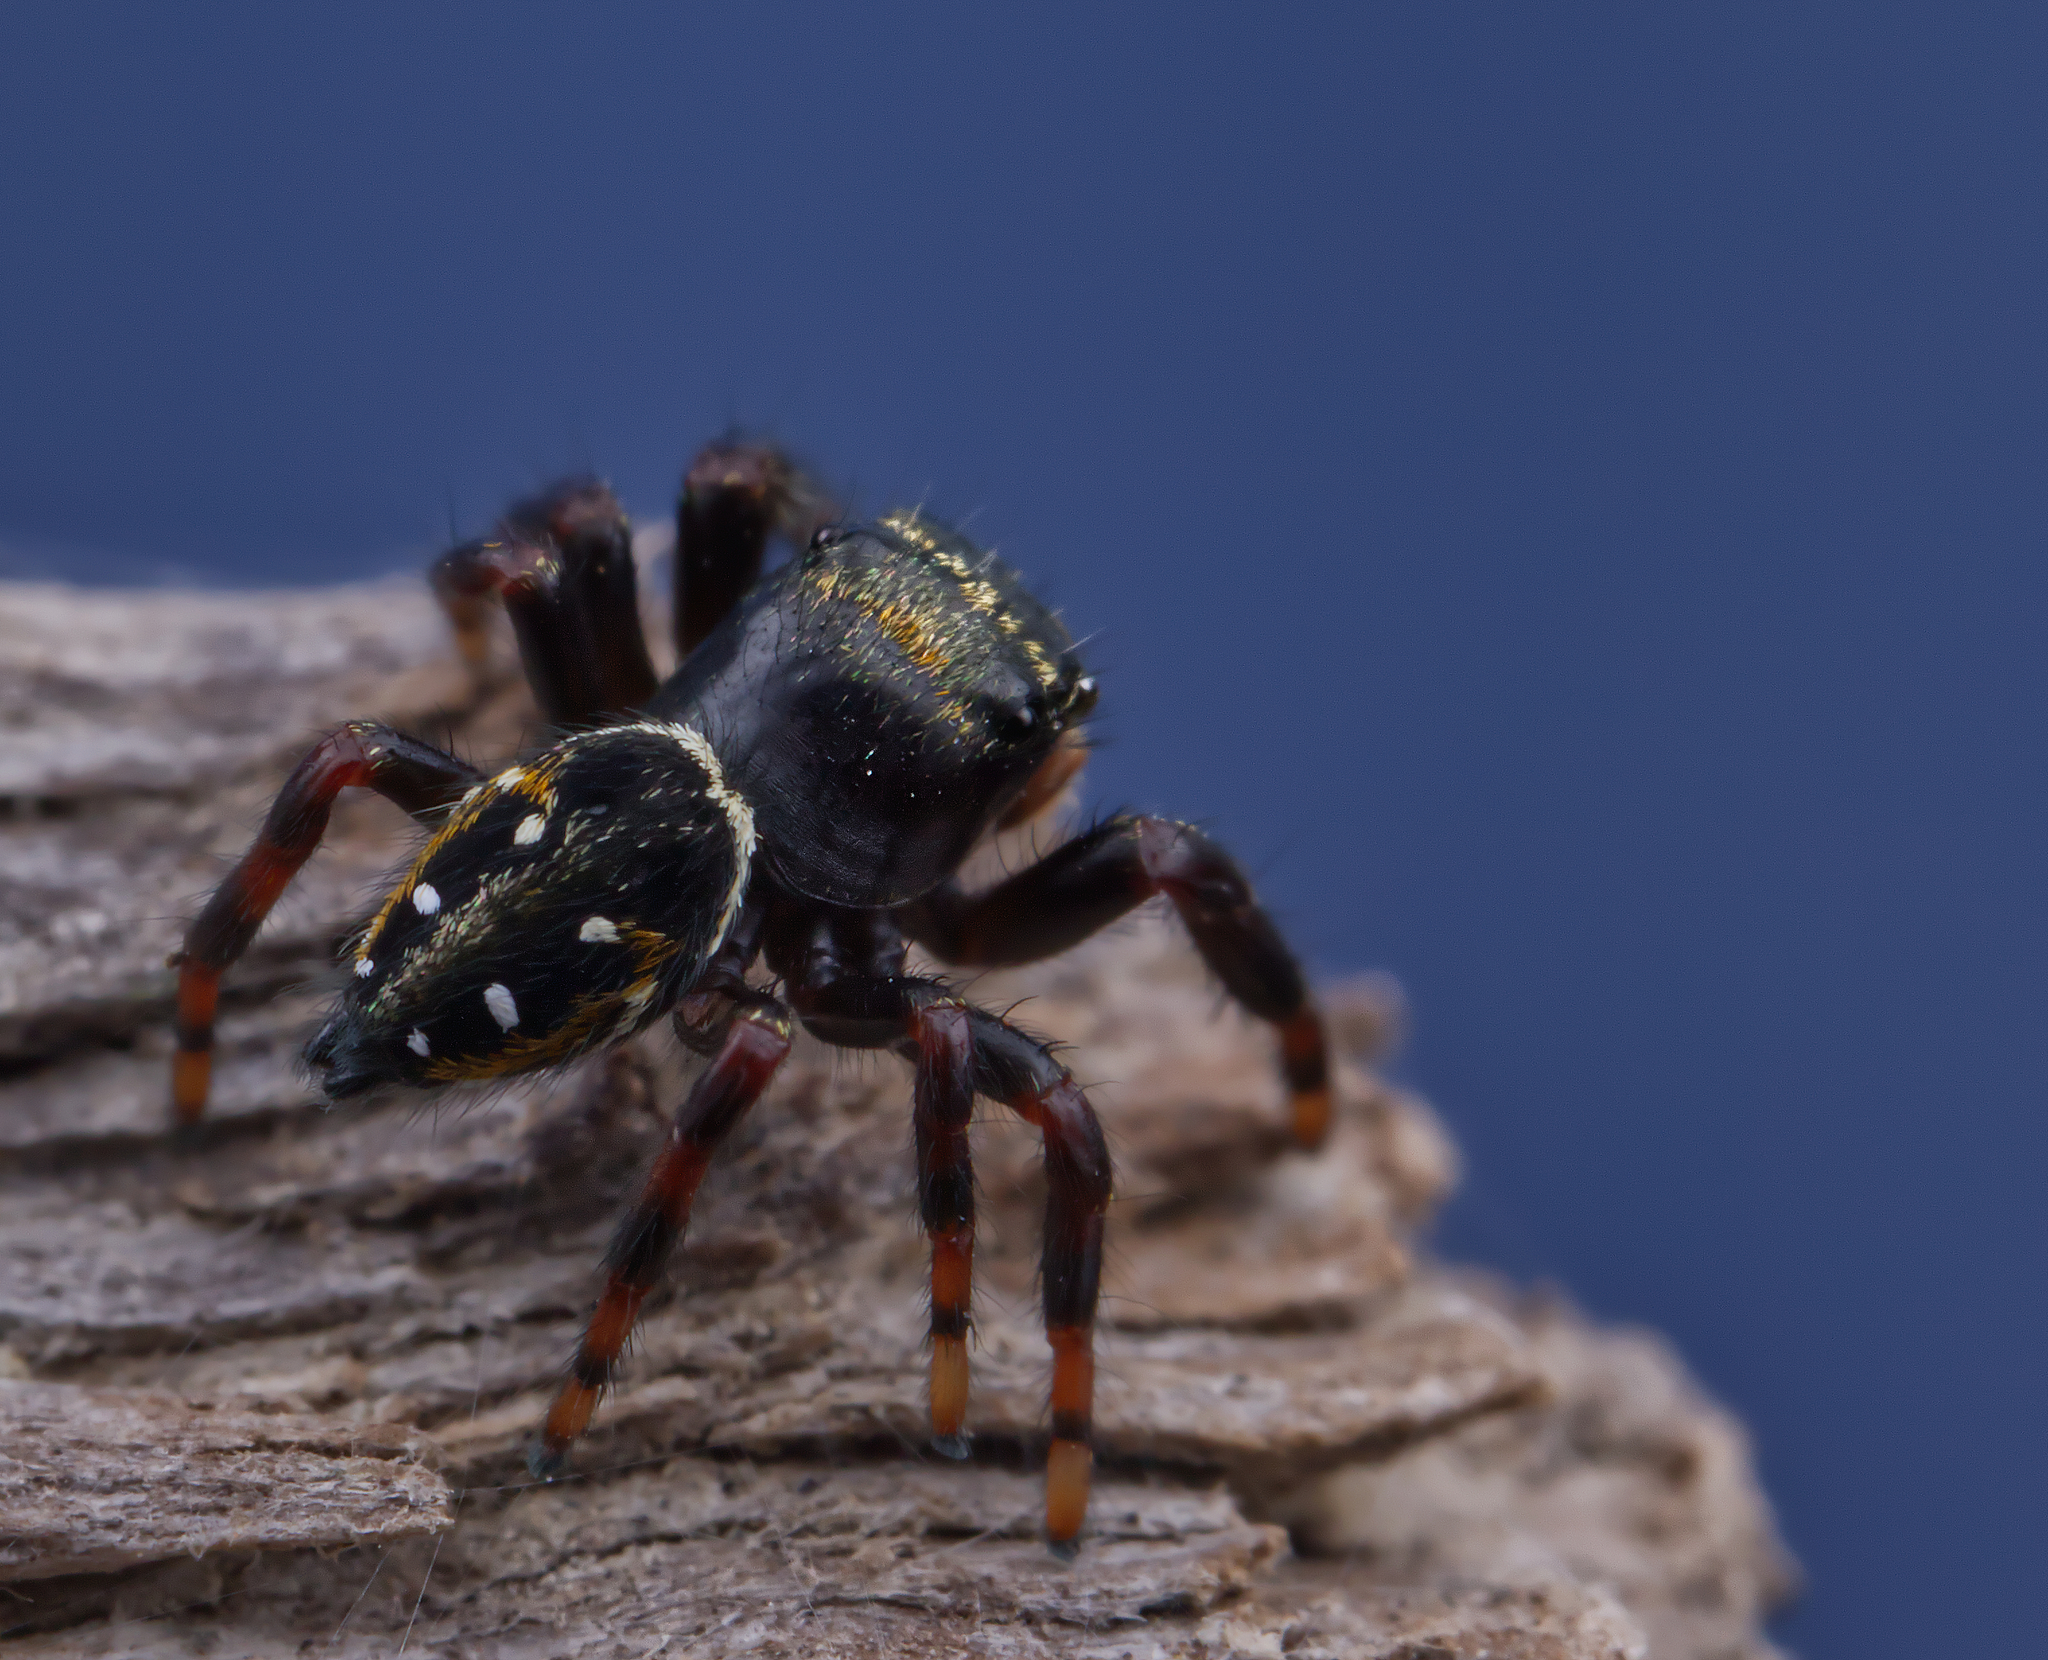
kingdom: Animalia
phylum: Arthropoda
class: Arachnida
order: Araneae
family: Salticidae
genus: Phidippus
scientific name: Phidippus clarus
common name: Brilliant jumping spider
